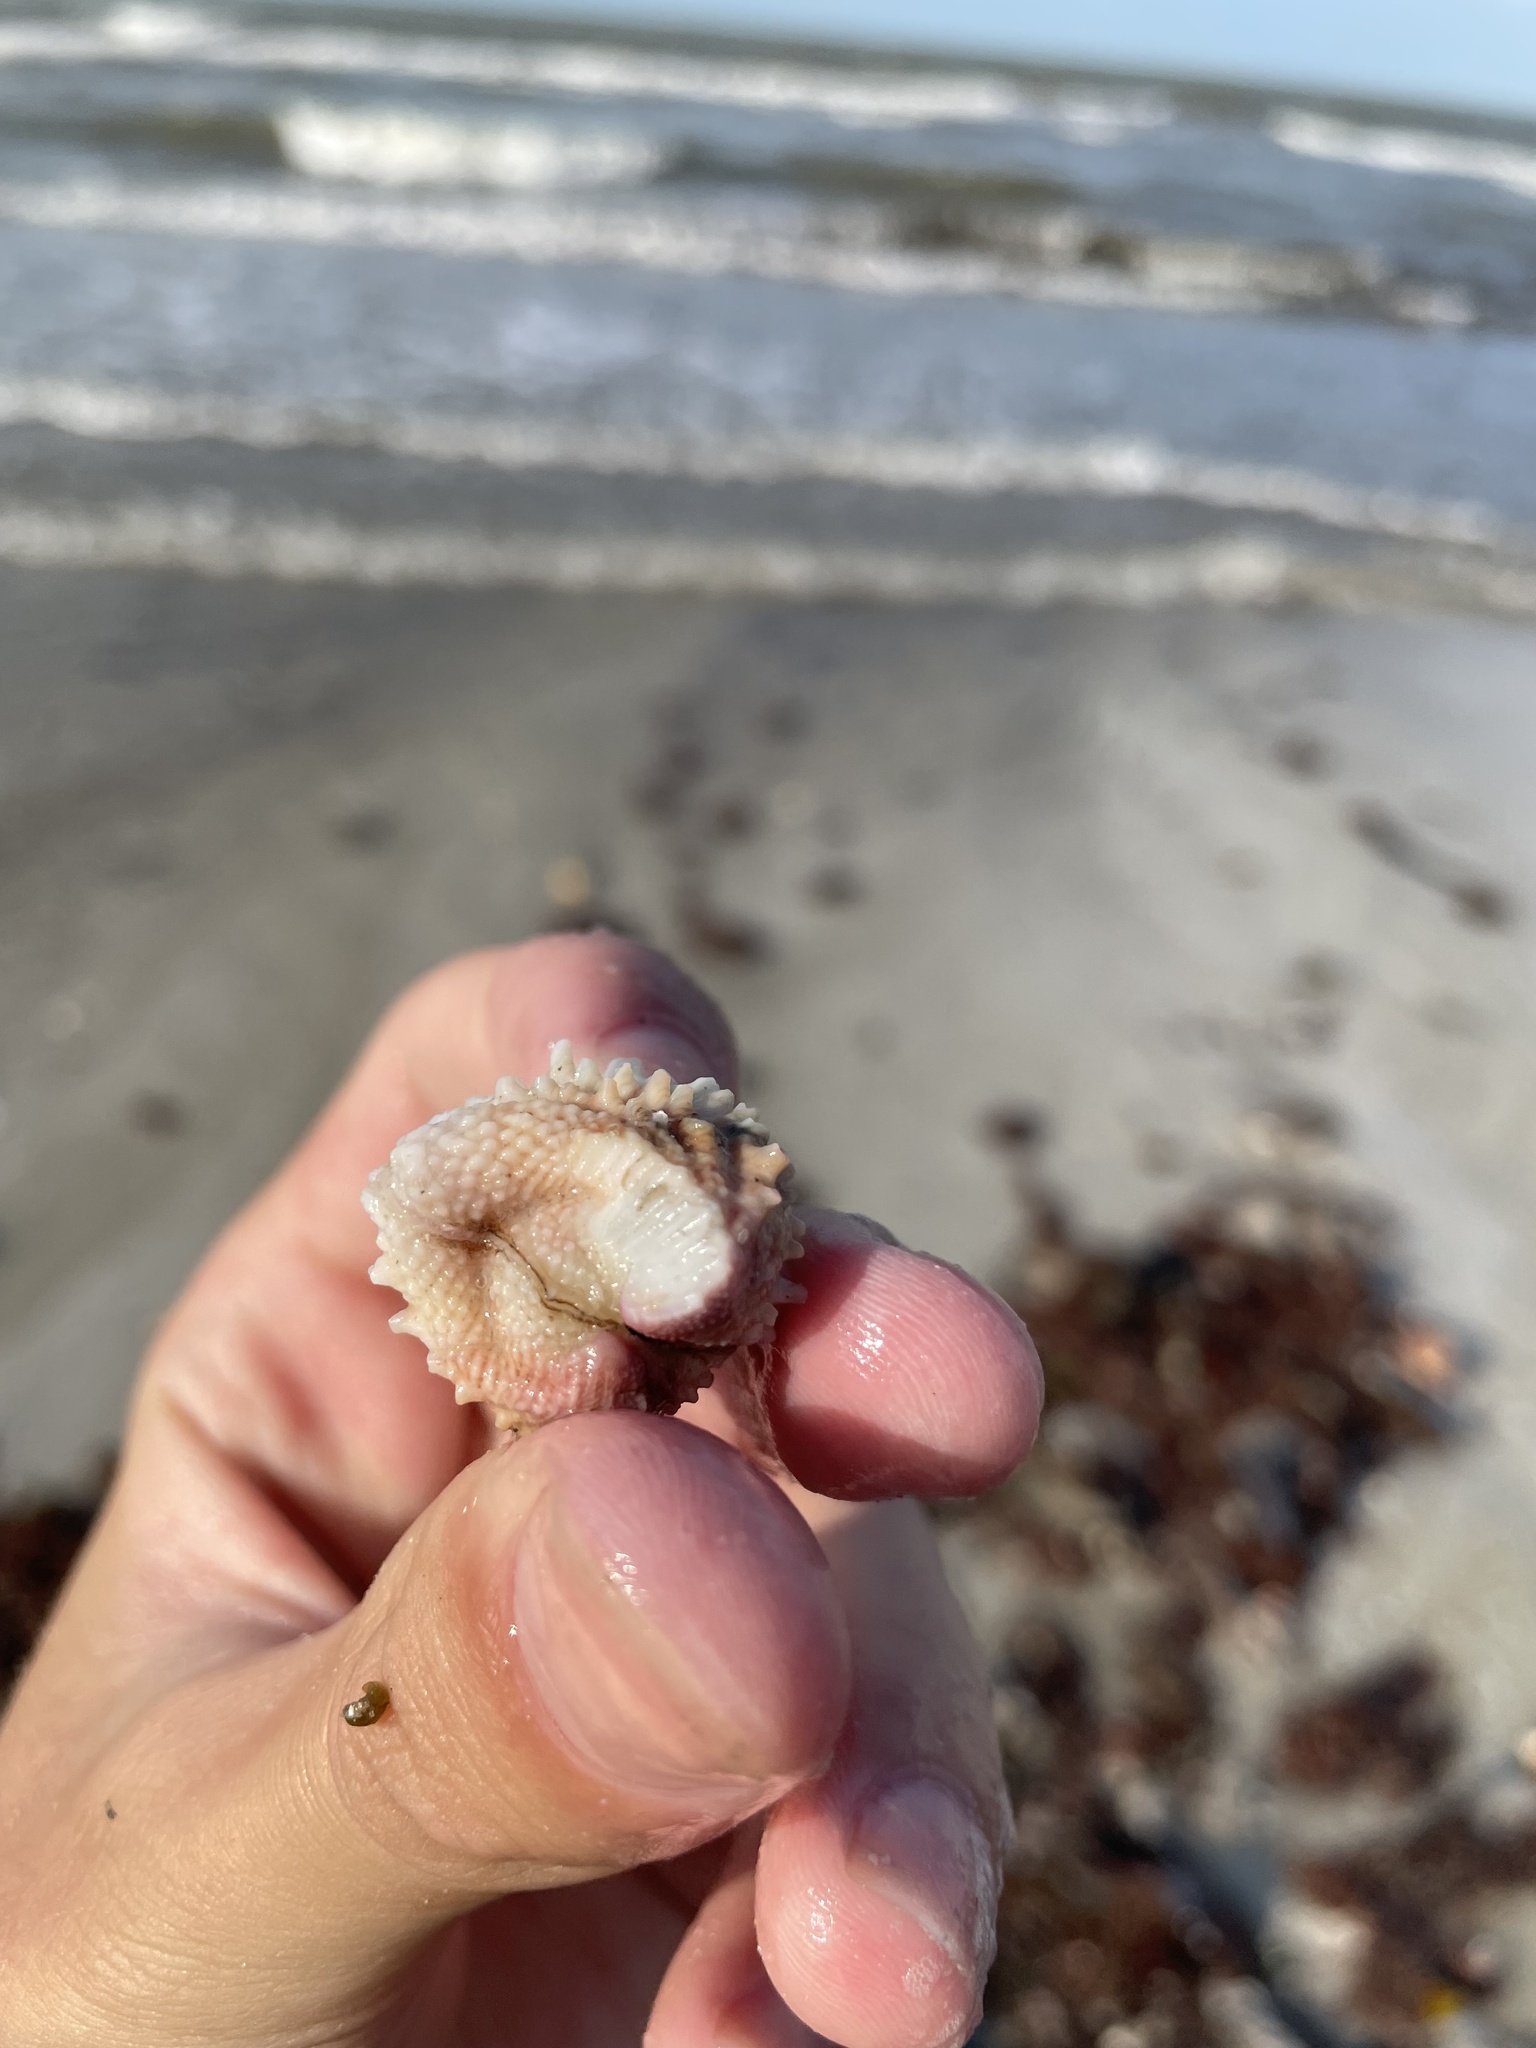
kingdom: Animalia
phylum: Mollusca
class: Bivalvia
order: Venerida
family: Chamidae
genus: Arcinella
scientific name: Arcinella cornuta
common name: Florida spiny jewel box
